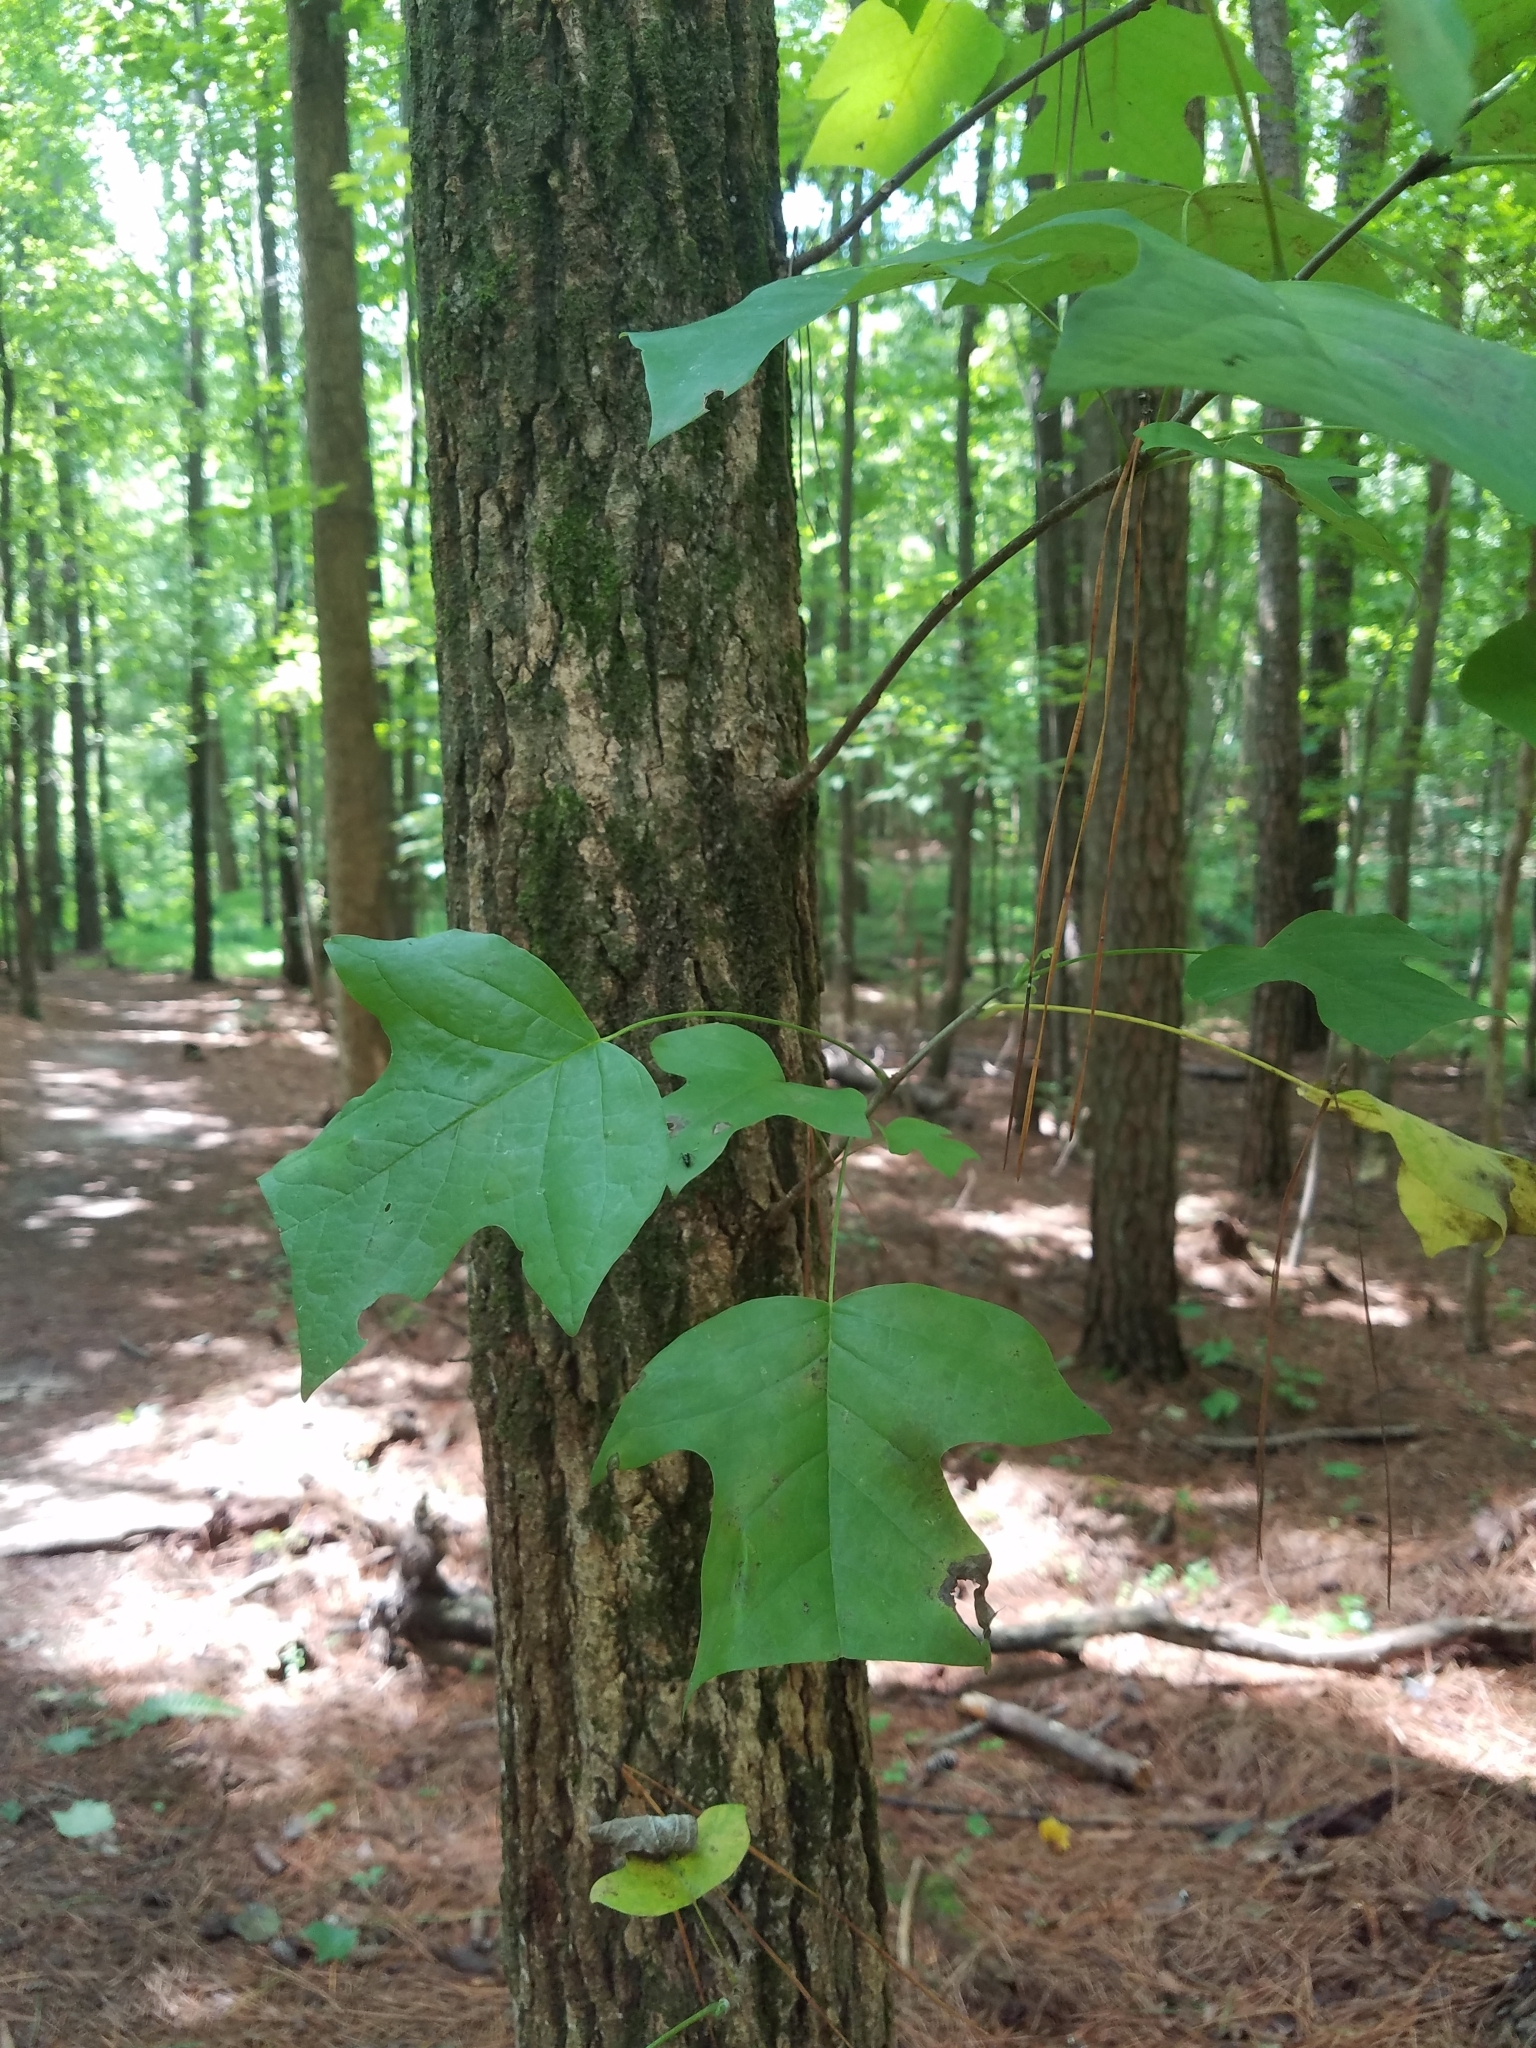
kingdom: Plantae
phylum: Tracheophyta
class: Magnoliopsida
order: Magnoliales
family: Magnoliaceae
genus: Liriodendron
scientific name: Liriodendron tulipifera
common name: Tulip tree
